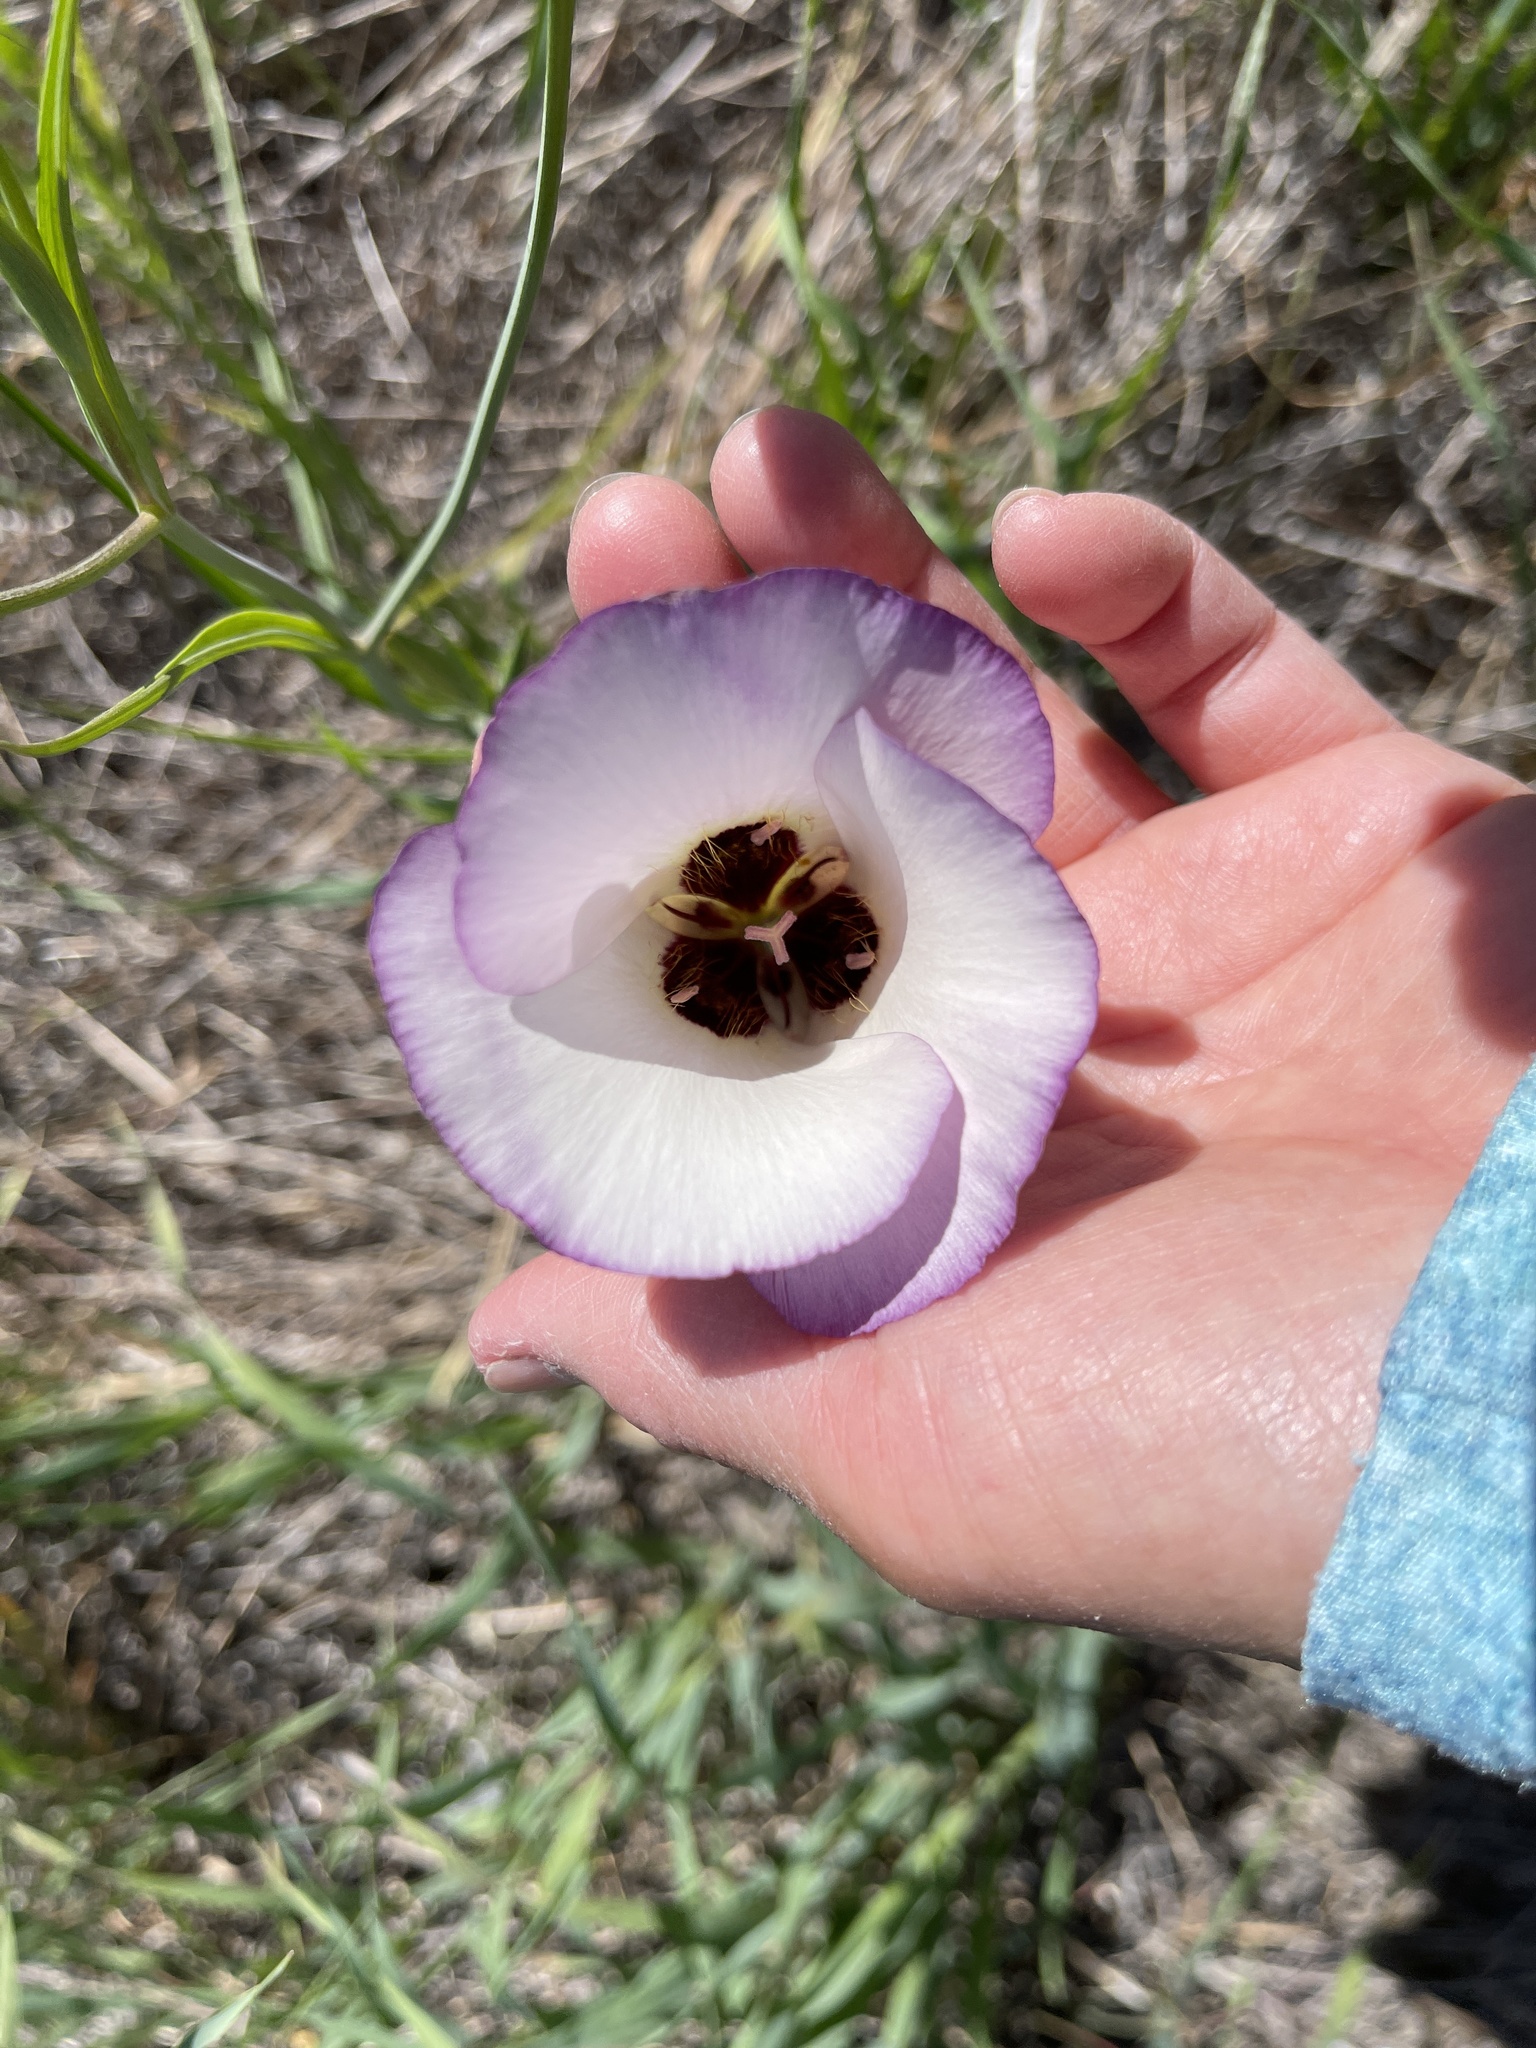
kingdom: Plantae
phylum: Tracheophyta
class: Liliopsida
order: Liliales
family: Liliaceae
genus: Calochortus
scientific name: Calochortus catalinae
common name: Catalina mariposa-lily
